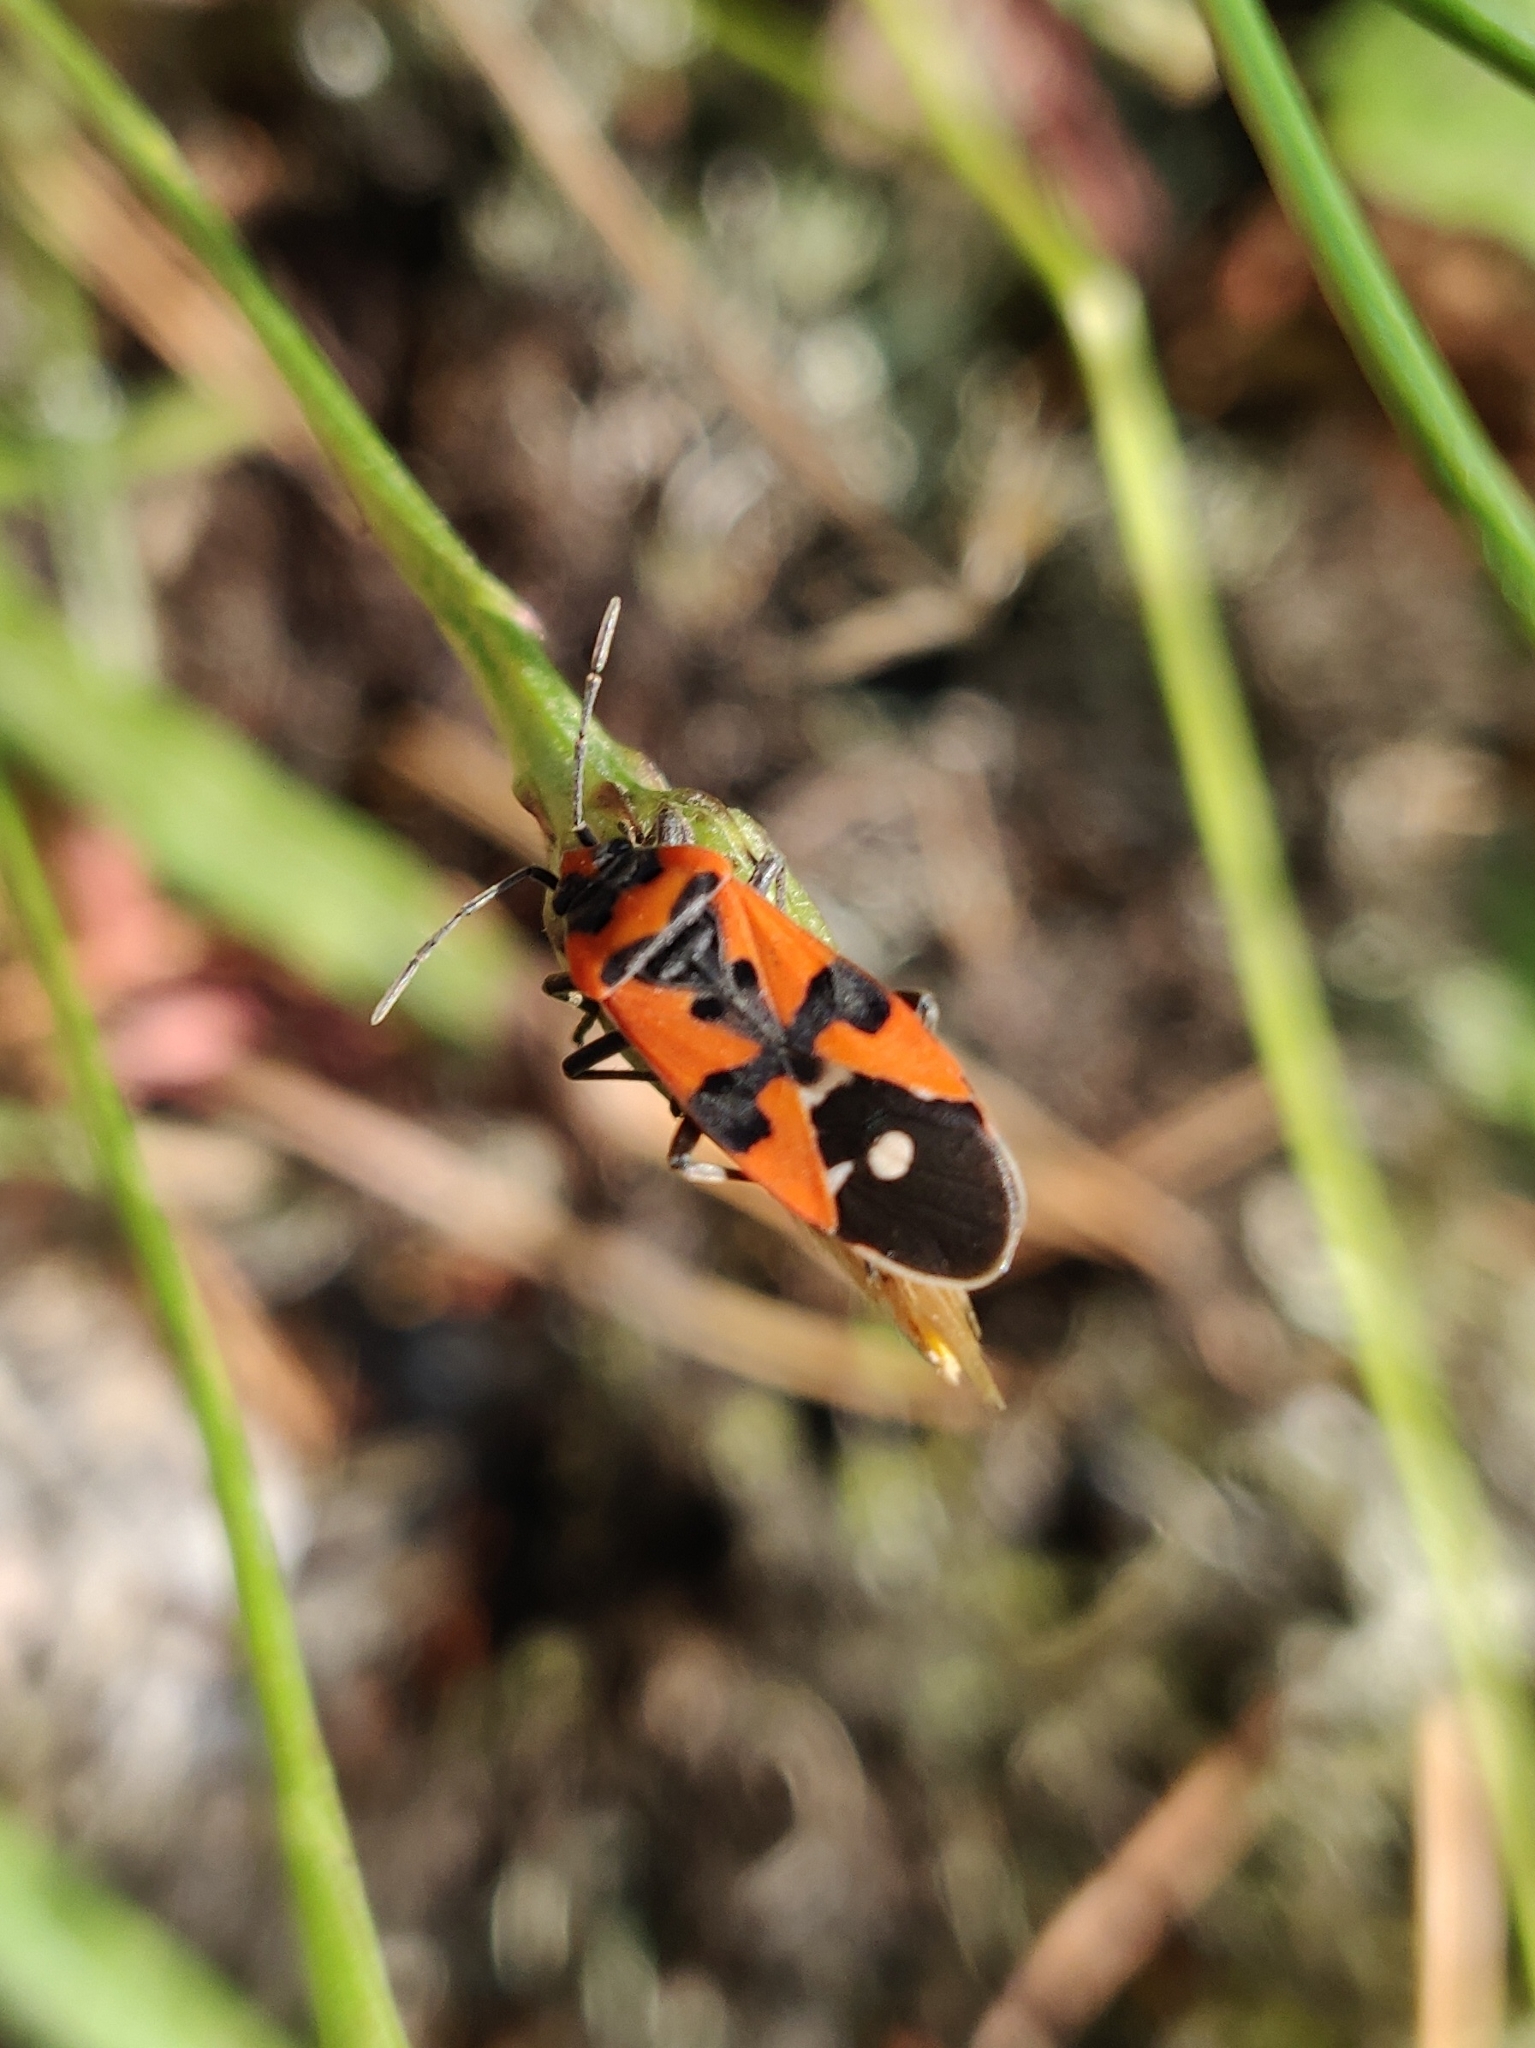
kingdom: Animalia
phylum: Arthropoda
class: Insecta
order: Hemiptera
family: Lygaeidae
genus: Lygaeus
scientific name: Lygaeus equestris
